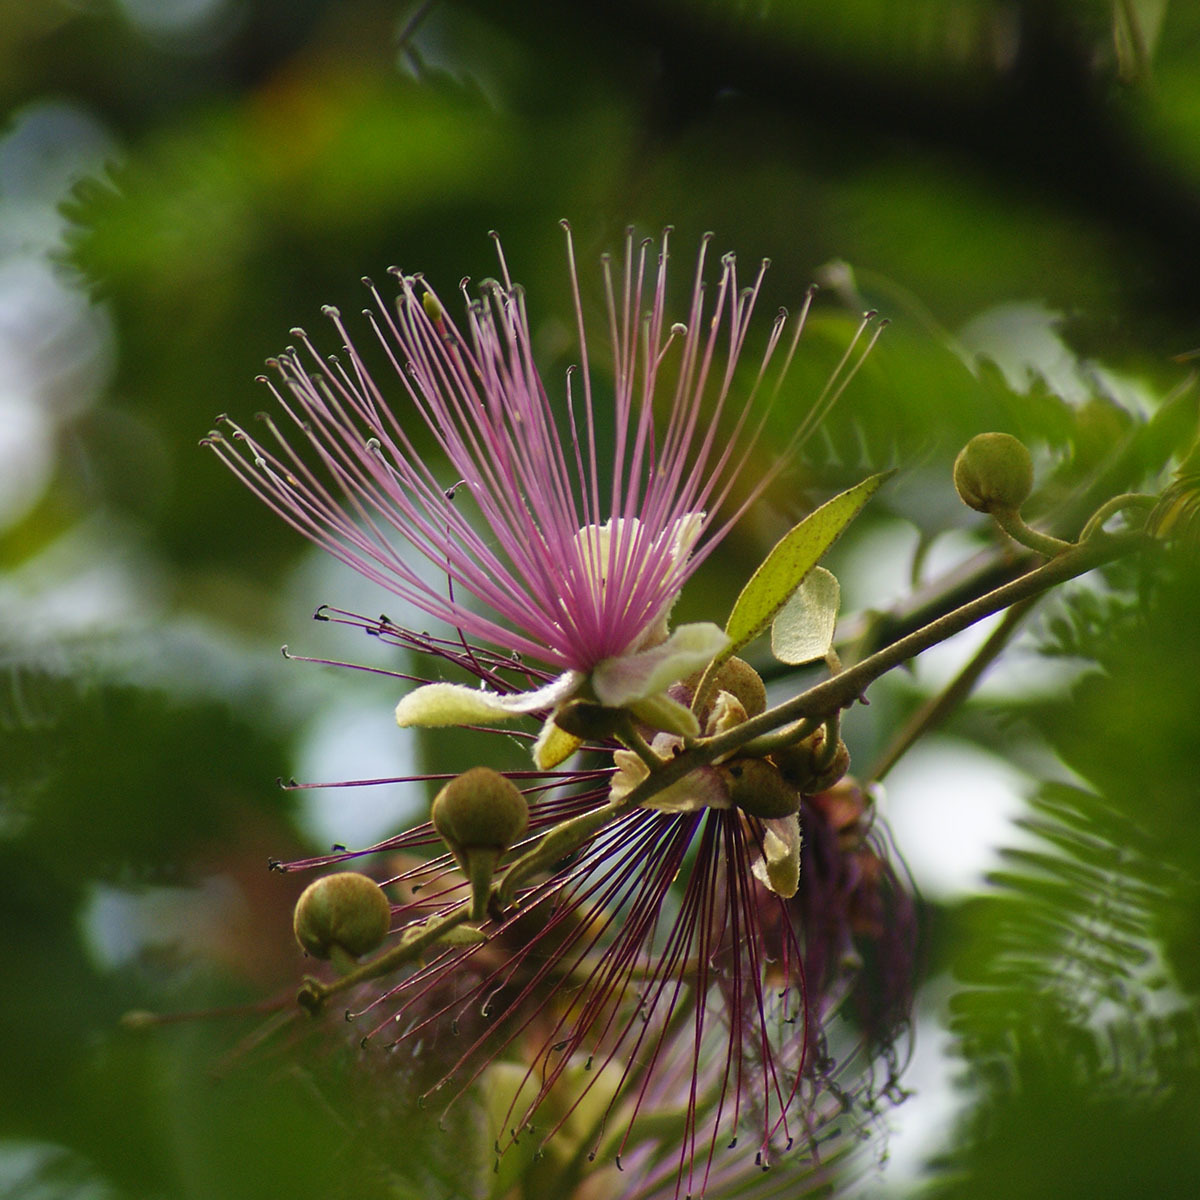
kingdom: Plantae
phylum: Tracheophyta
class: Magnoliopsida
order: Brassicales
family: Capparaceae
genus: Capparis
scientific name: Capparis zeylanica
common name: Ceylon caper
